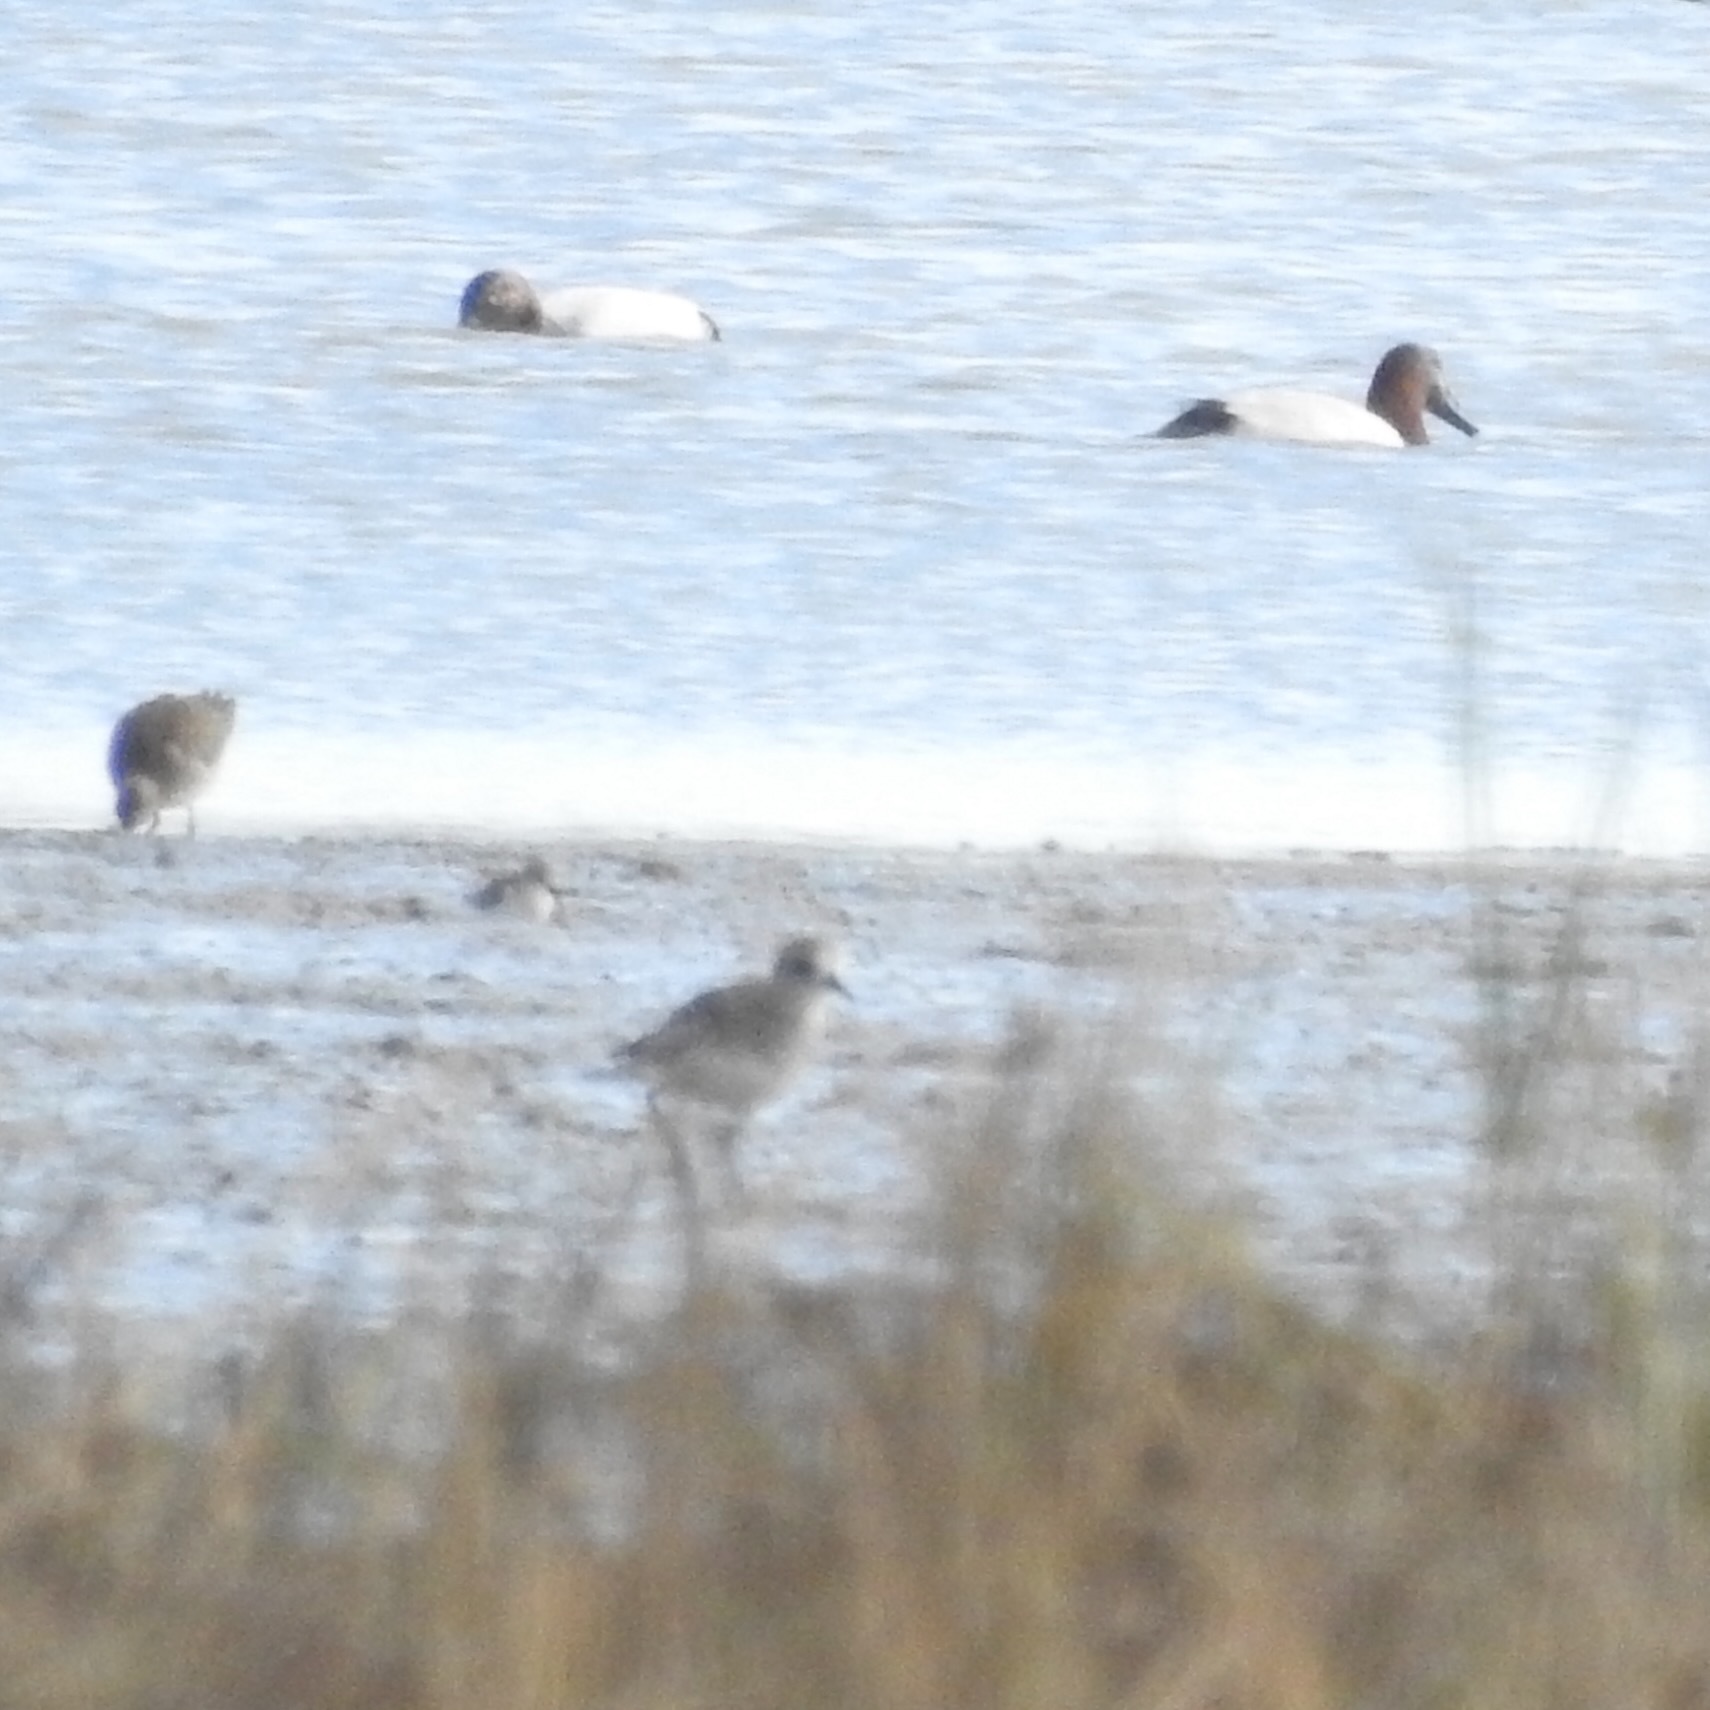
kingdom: Animalia
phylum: Chordata
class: Aves
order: Anseriformes
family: Anatidae
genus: Aythya
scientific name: Aythya valisineria
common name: Canvasback
